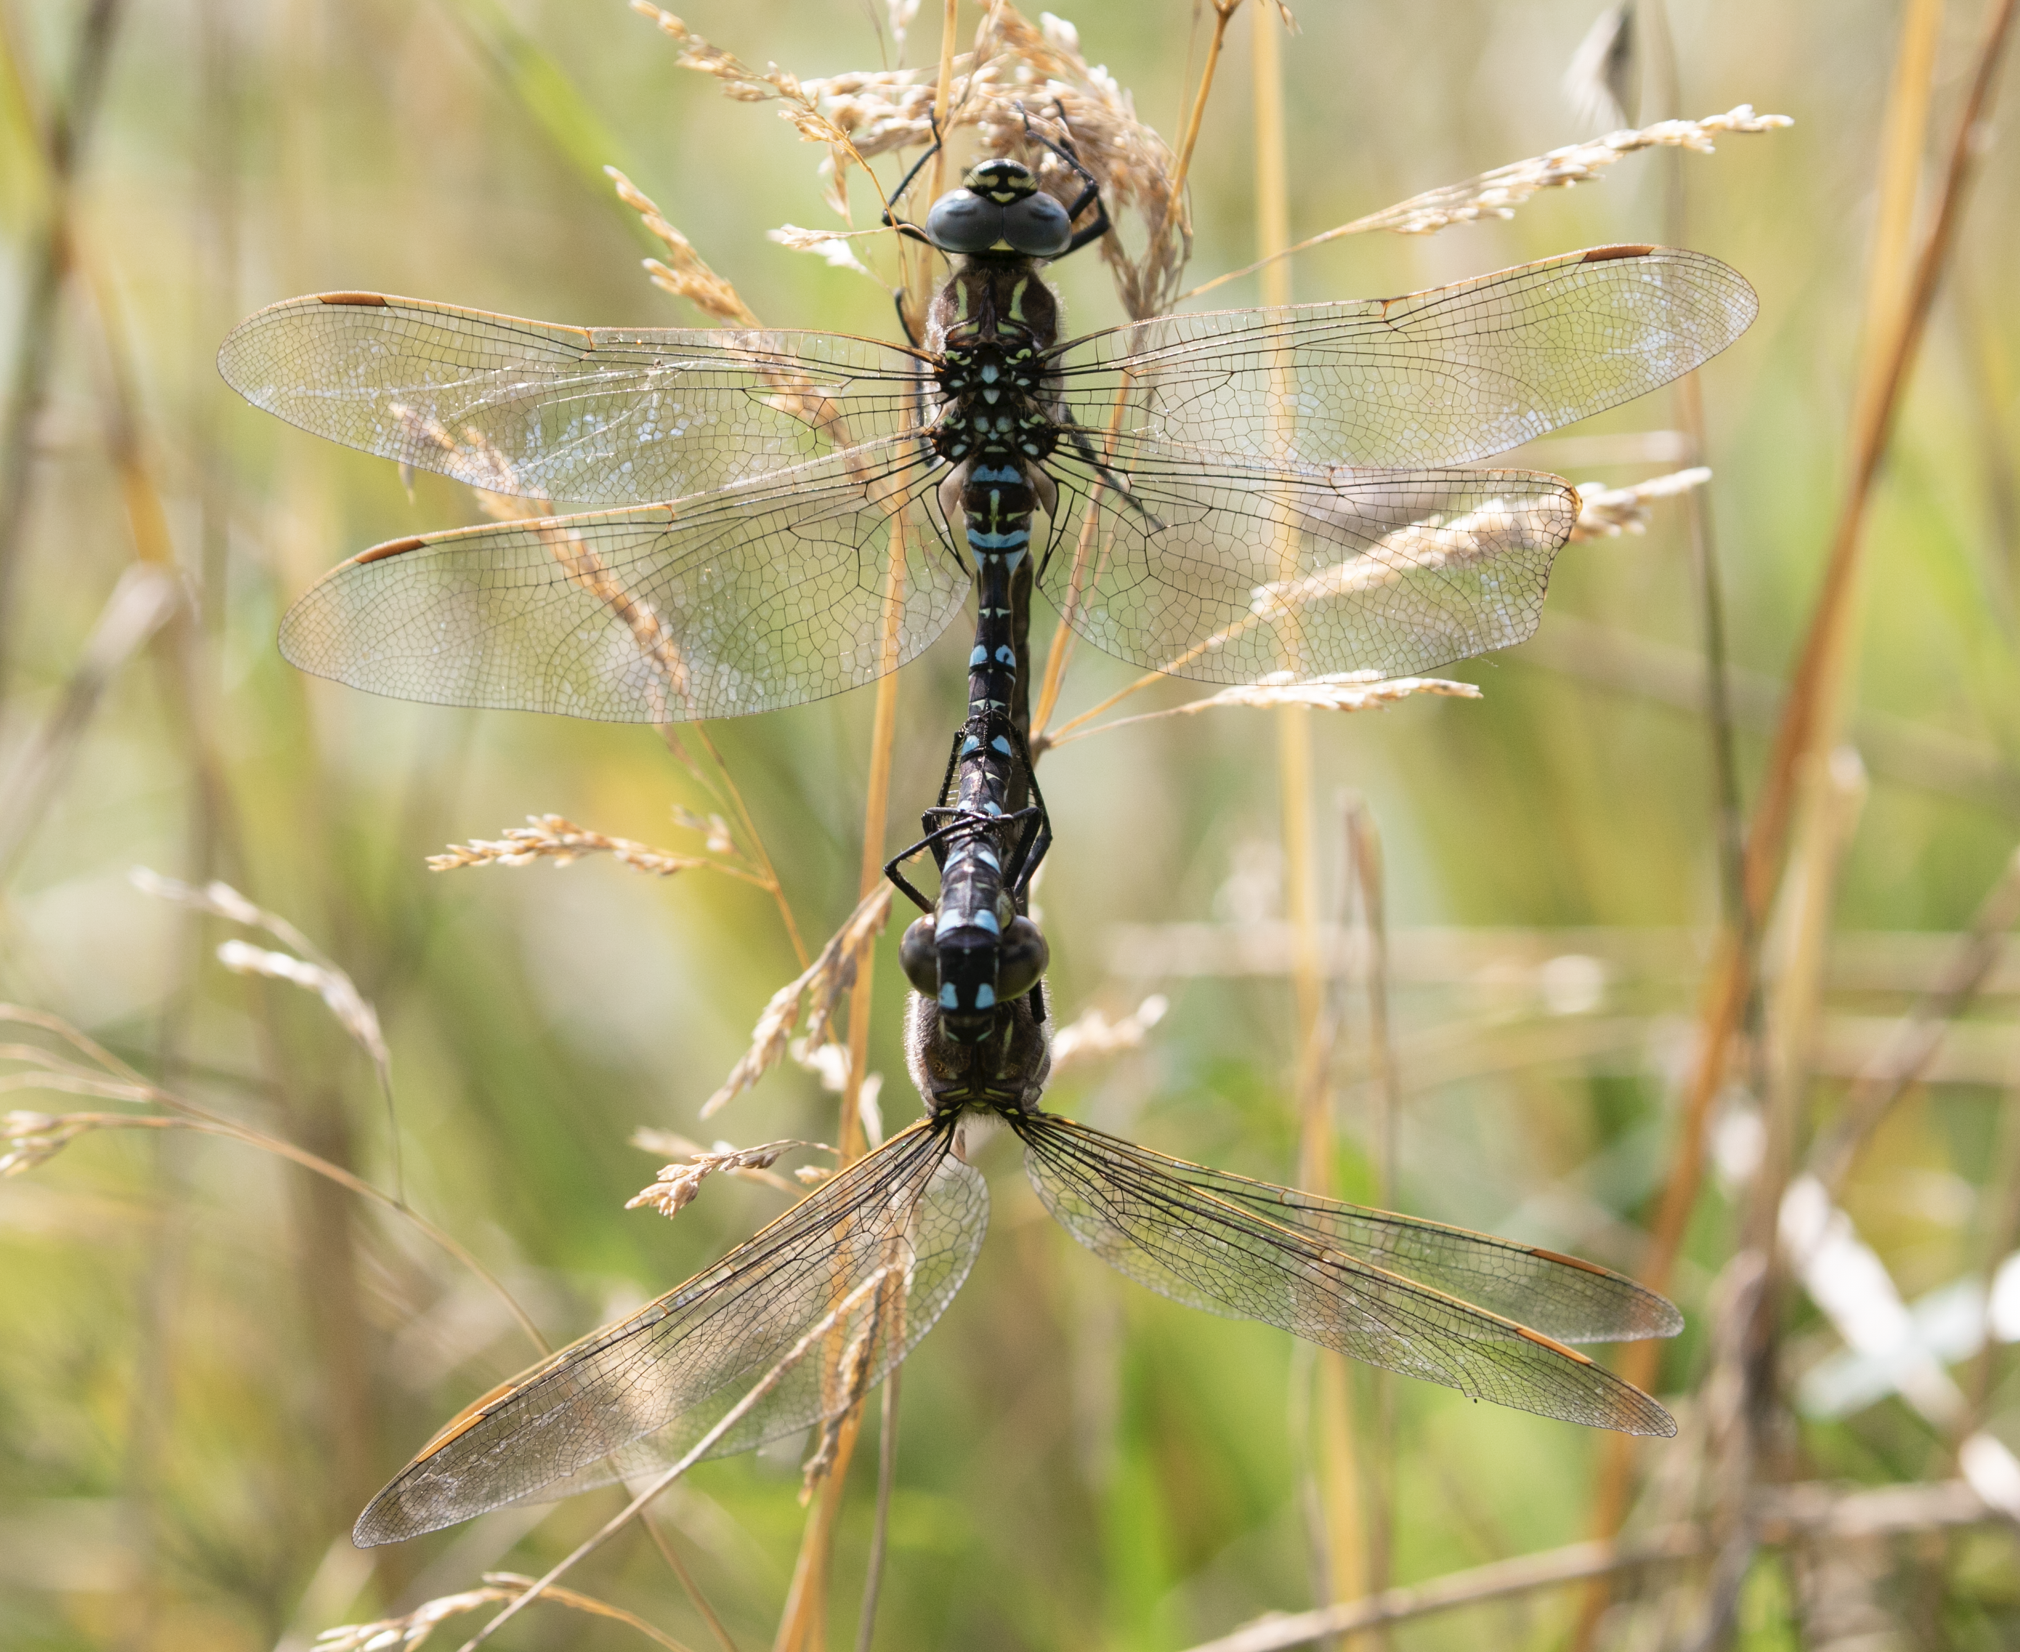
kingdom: Animalia
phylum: Arthropoda
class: Insecta
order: Odonata
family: Aeshnidae
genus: Aeshna
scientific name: Aeshna juncea
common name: Moorland hawker
